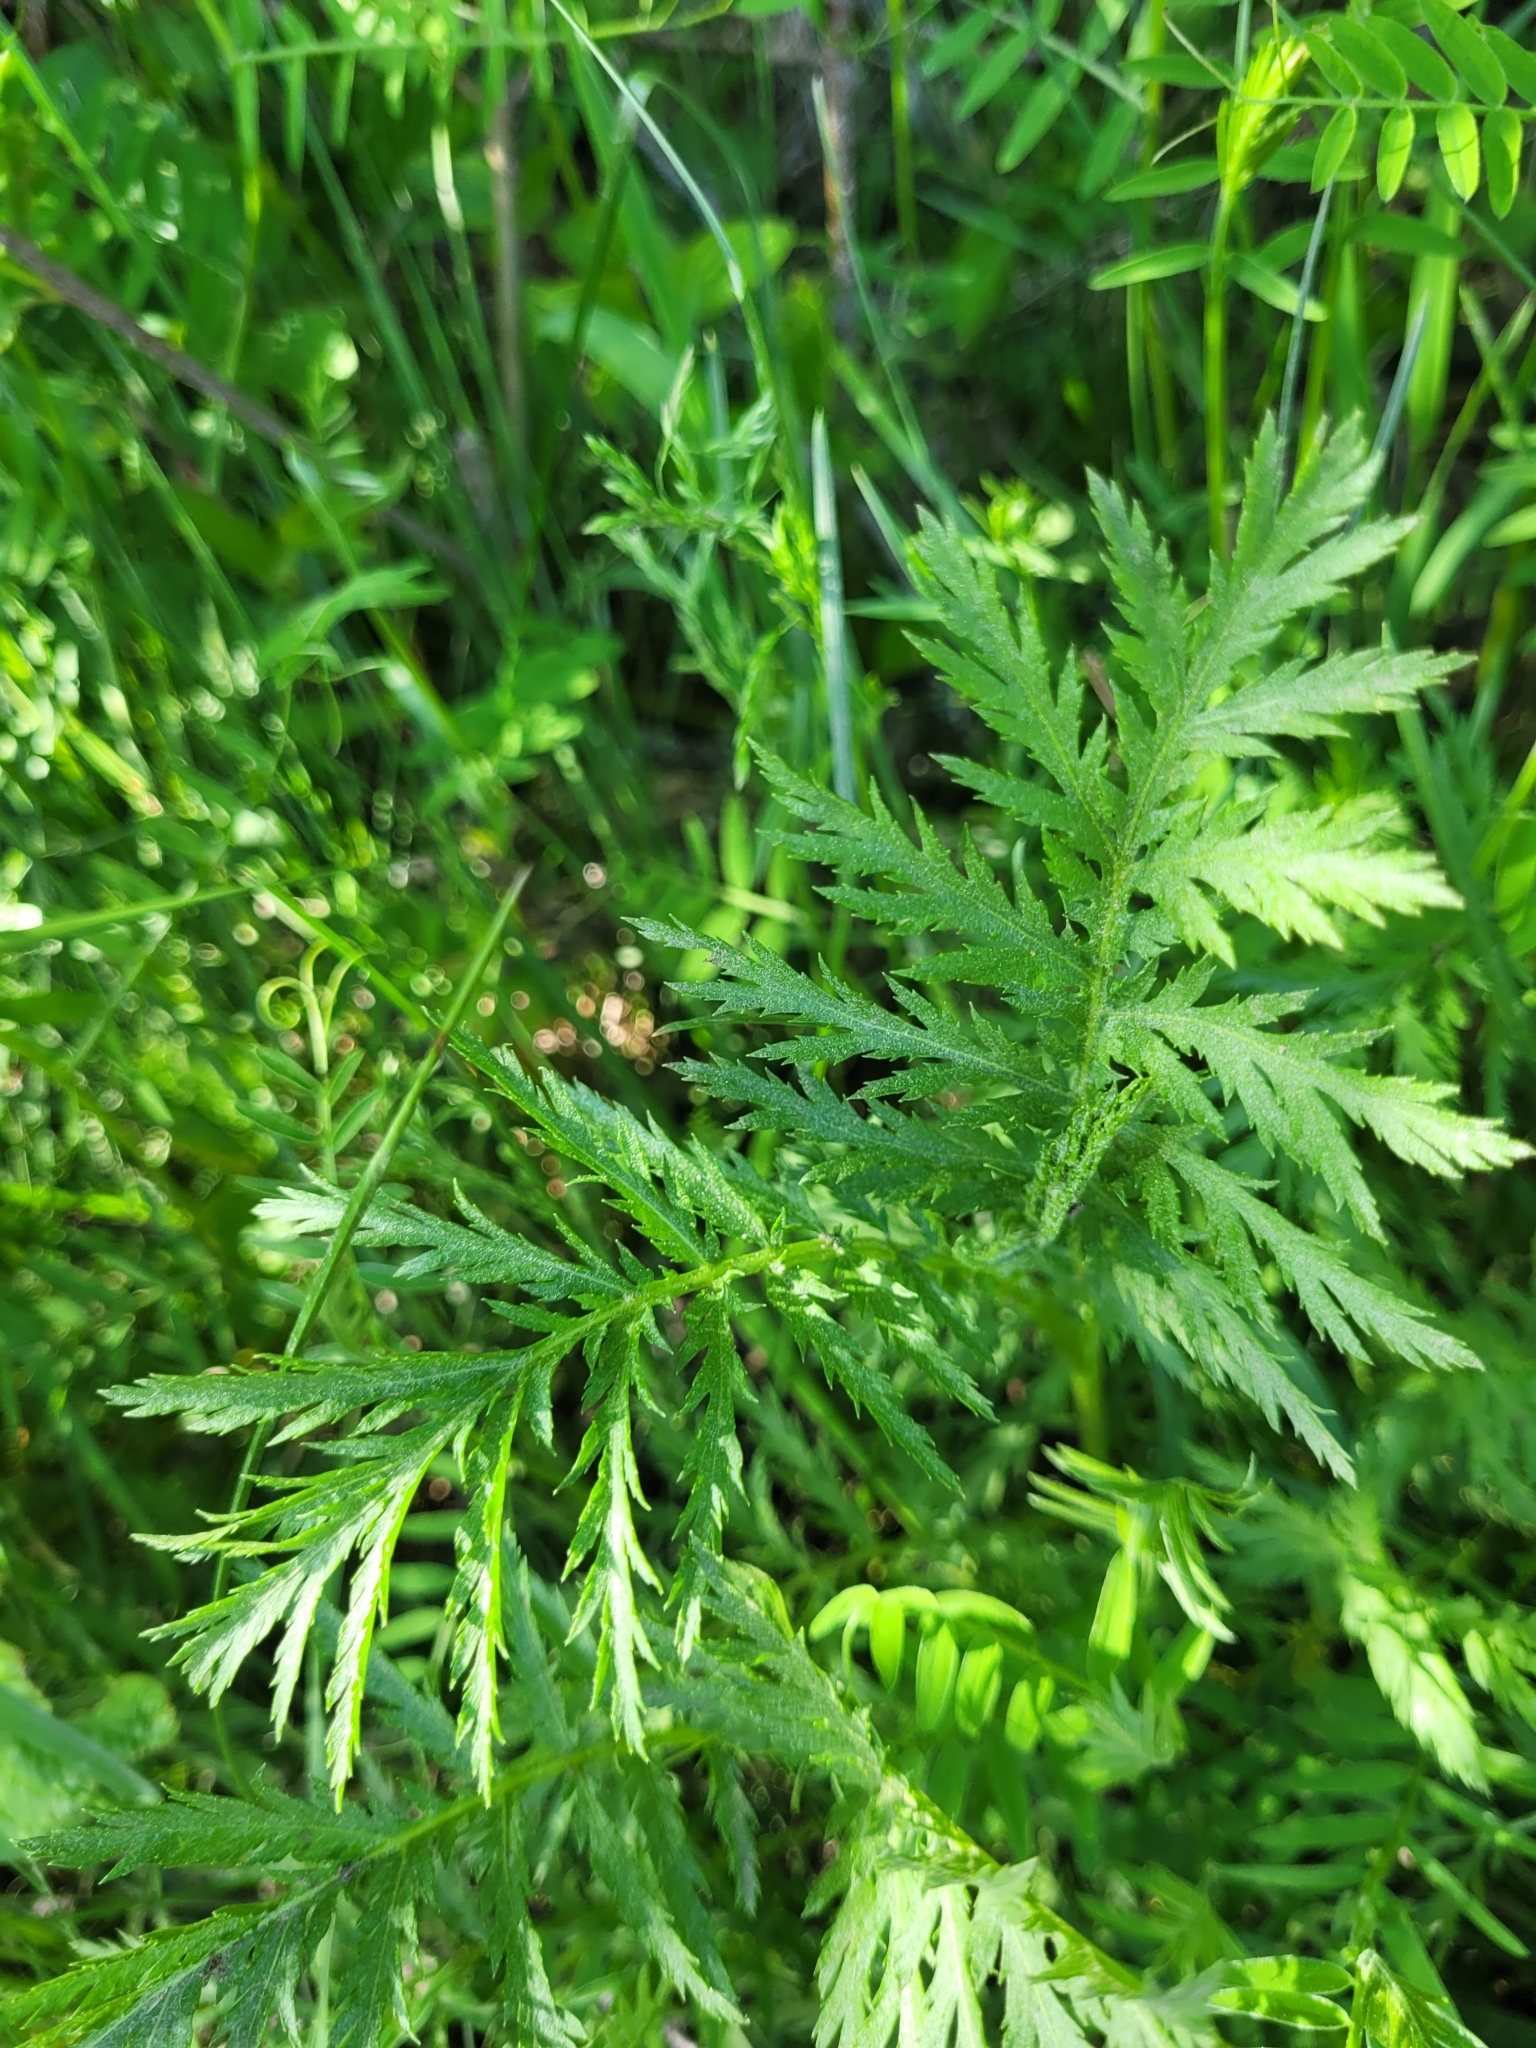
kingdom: Plantae
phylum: Tracheophyta
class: Magnoliopsida
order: Asterales
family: Asteraceae
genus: Tanacetum
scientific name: Tanacetum vulgare
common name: Common tansy
